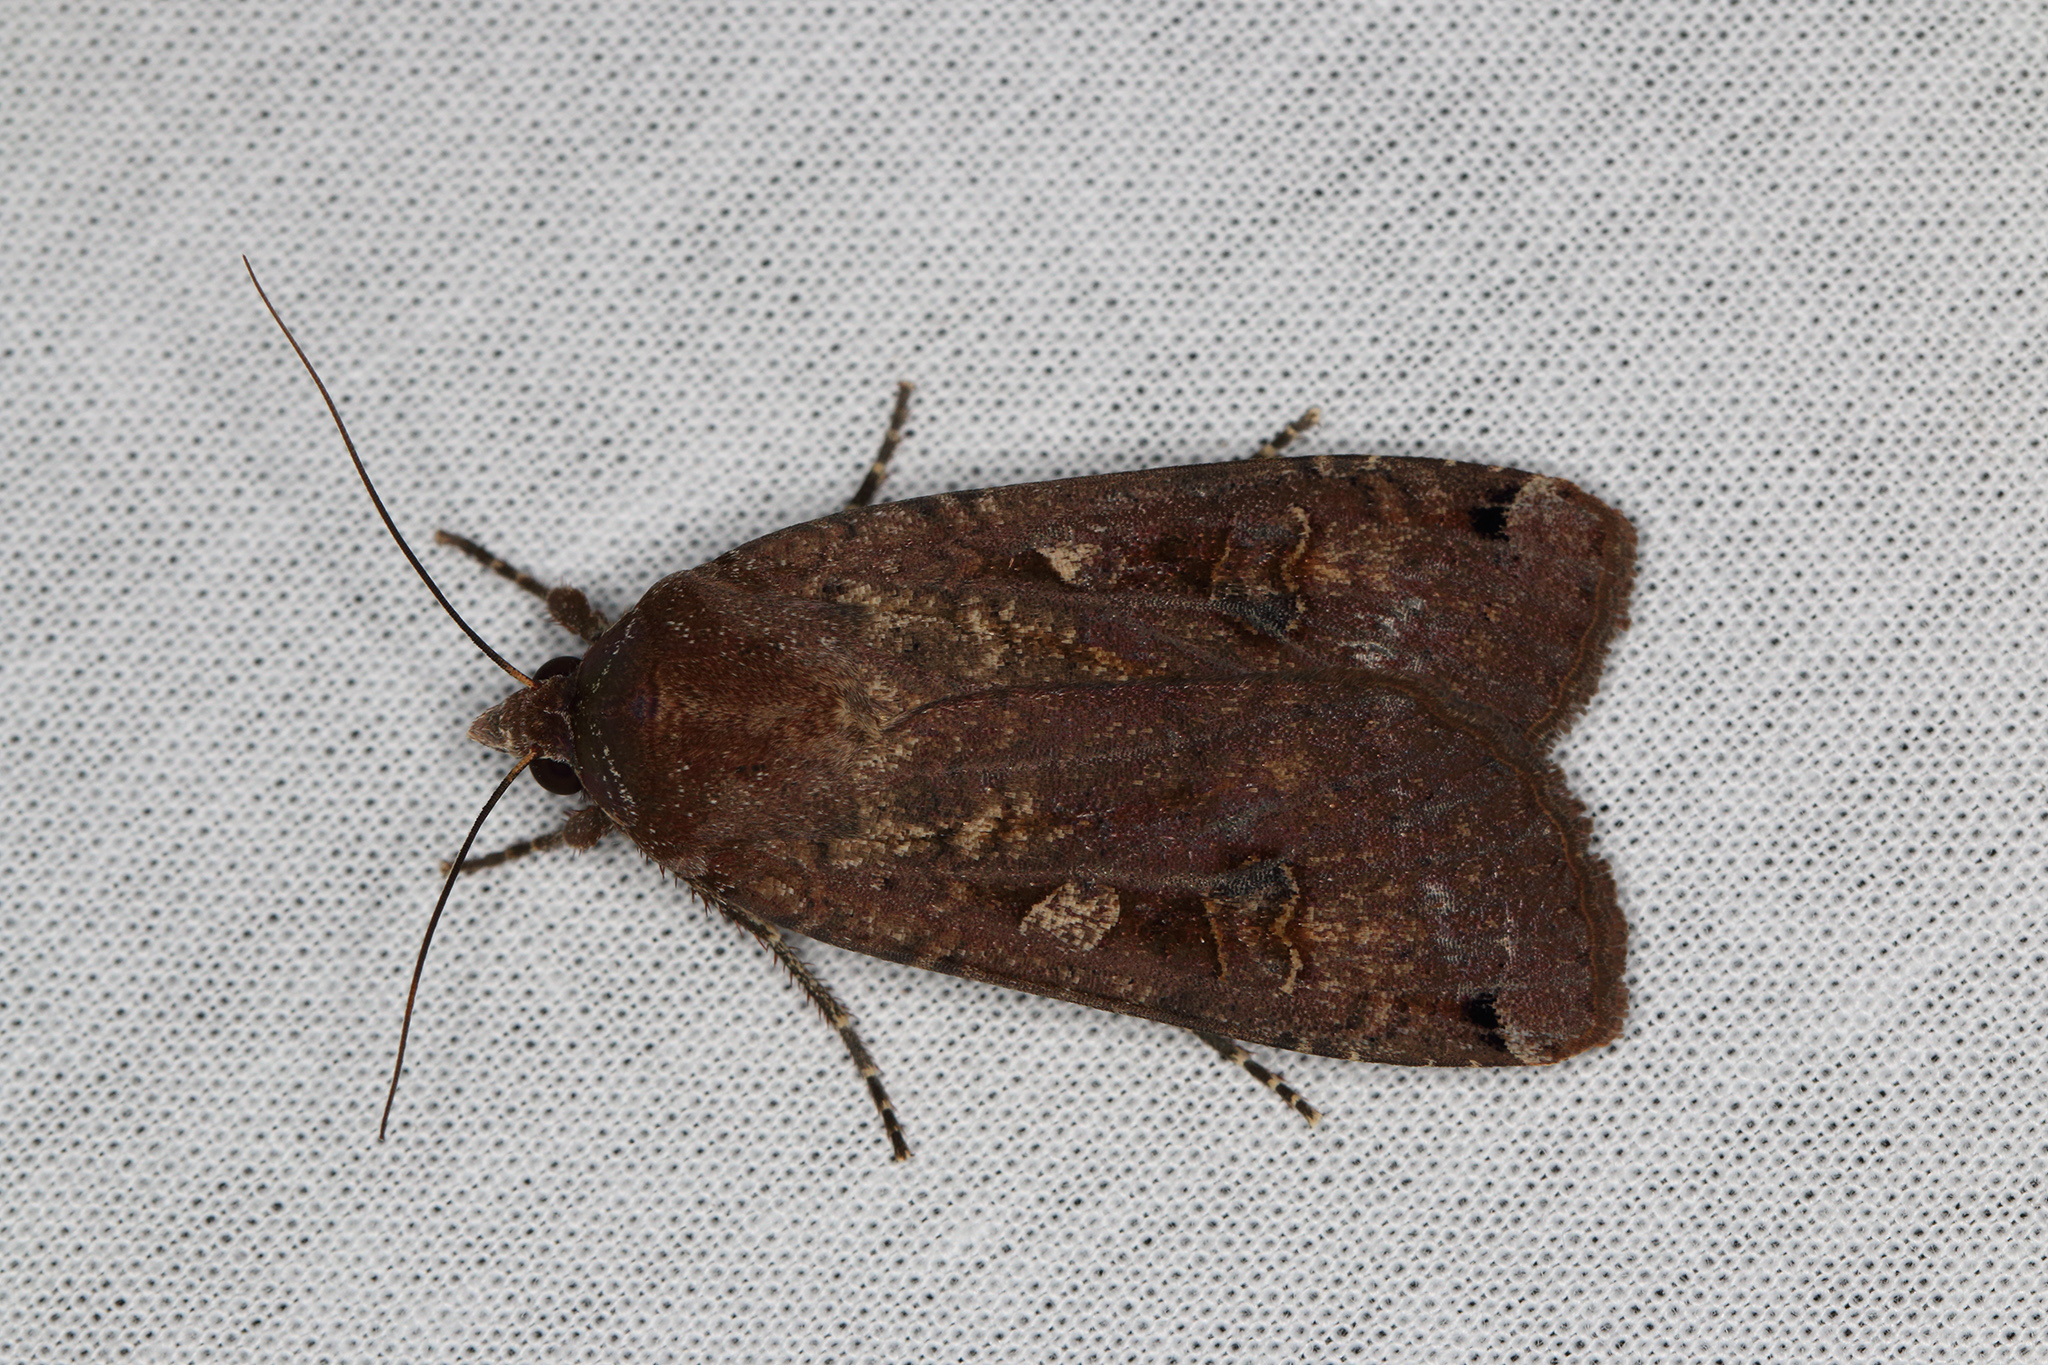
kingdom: Animalia
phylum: Arthropoda
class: Insecta
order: Lepidoptera
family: Noctuidae
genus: Noctua
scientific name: Noctua pronuba
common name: Large yellow underwing
